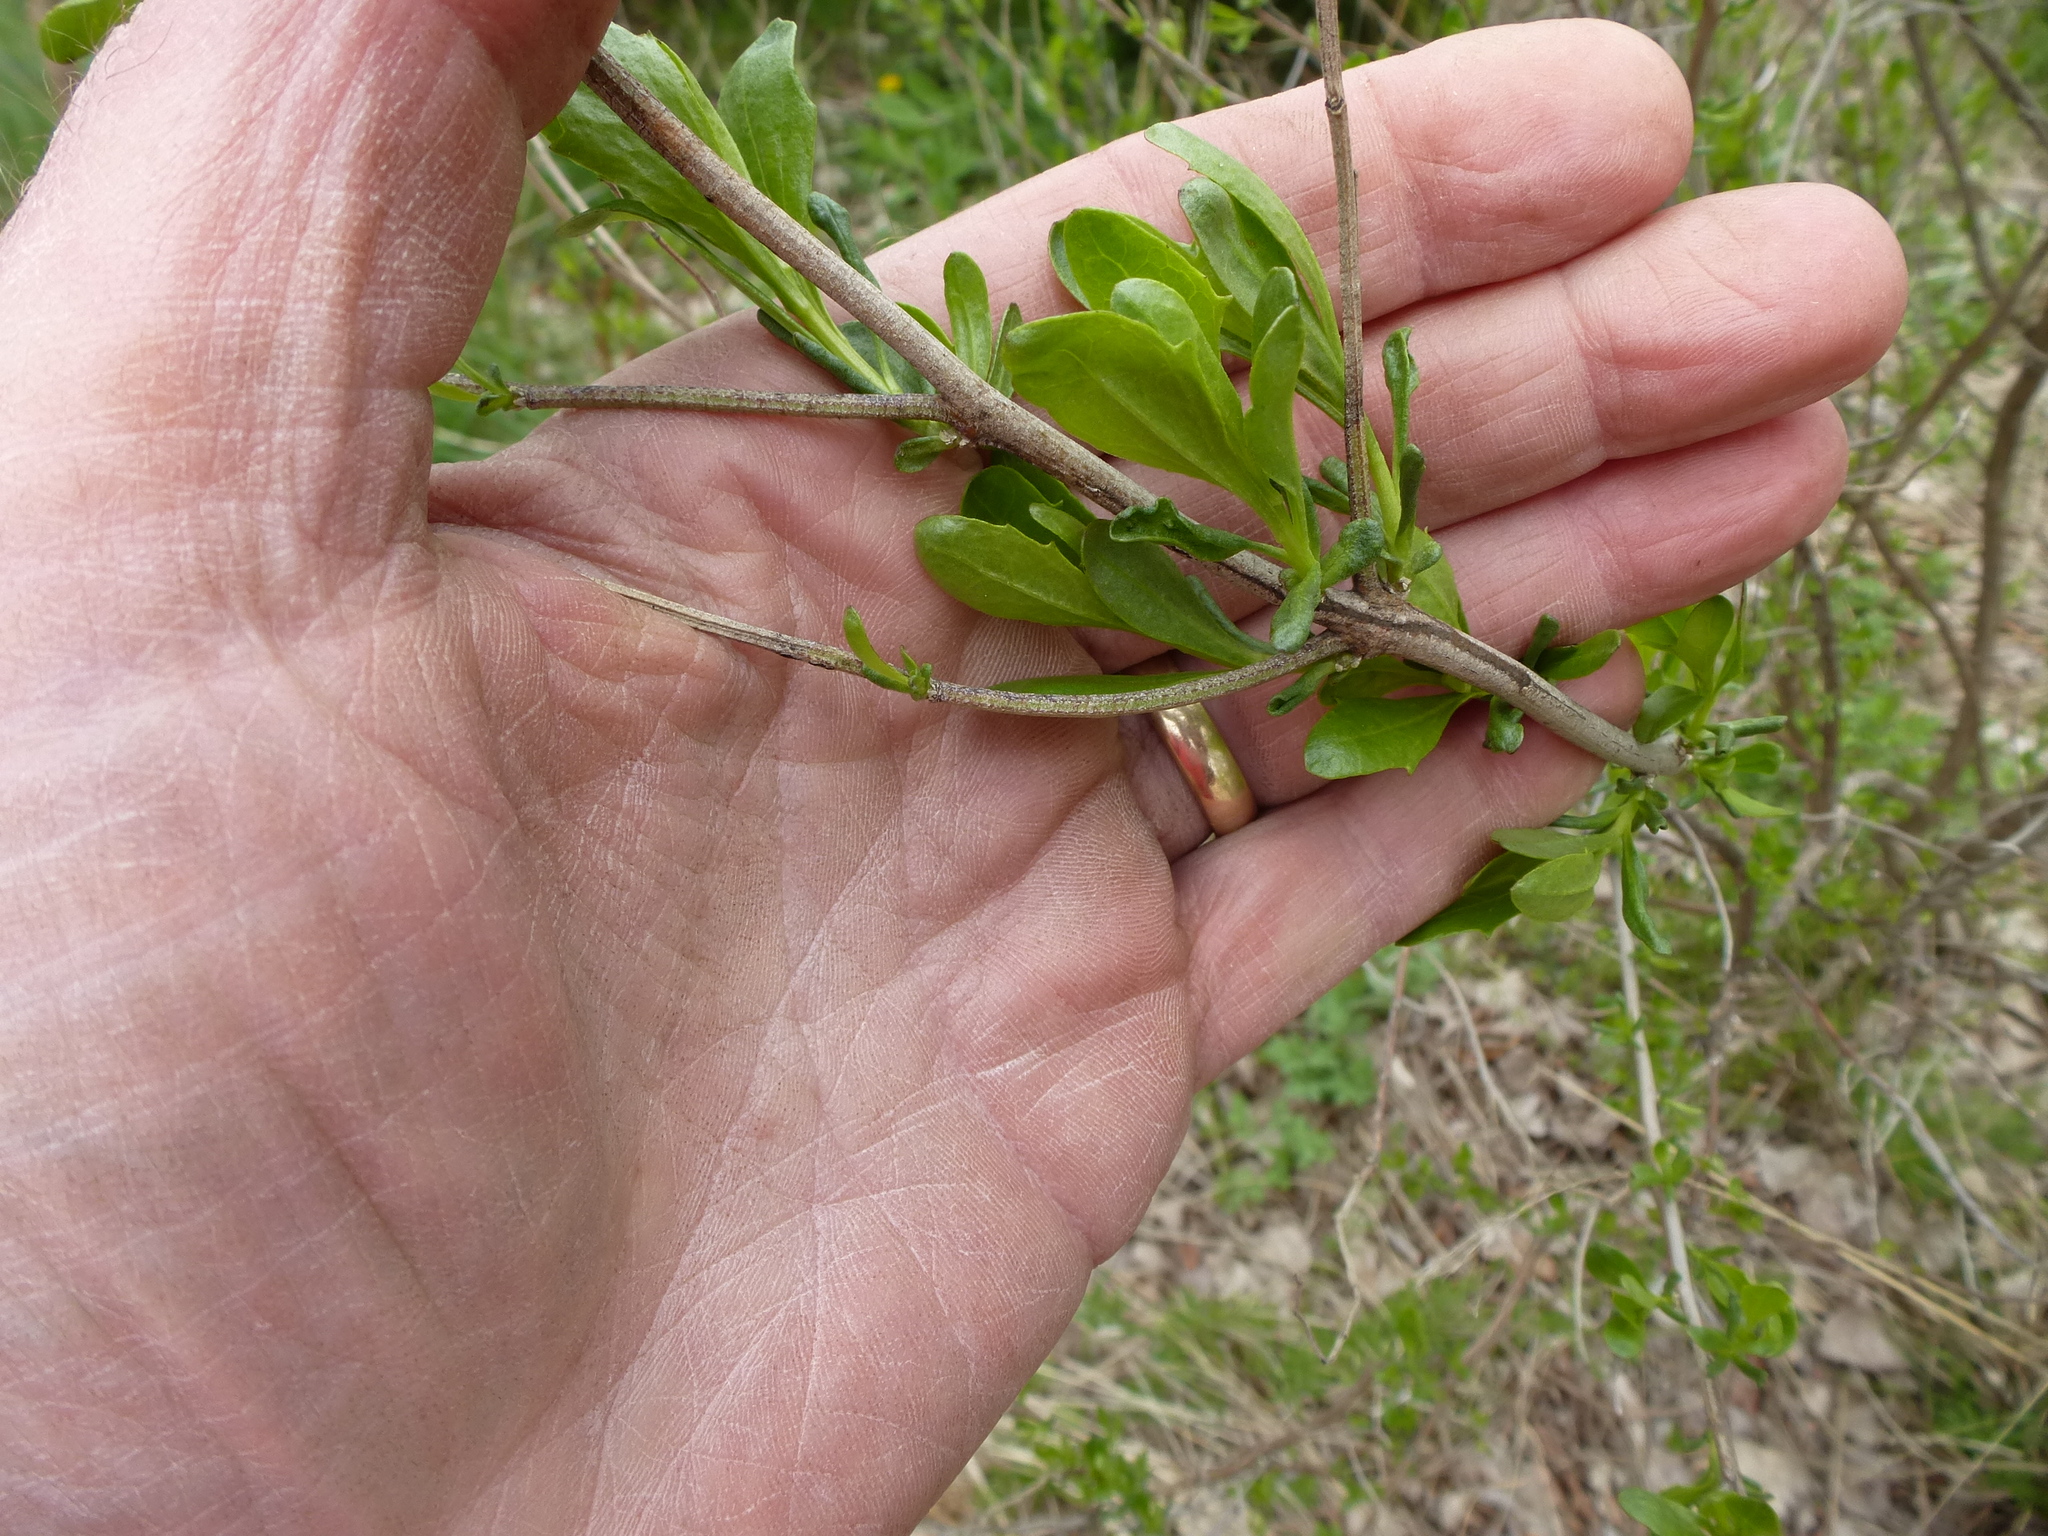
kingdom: Plantae
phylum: Tracheophyta
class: Magnoliopsida
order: Asterales
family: Asteraceae
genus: Baccharis
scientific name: Baccharis halimifolia
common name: Eastern baccharis
